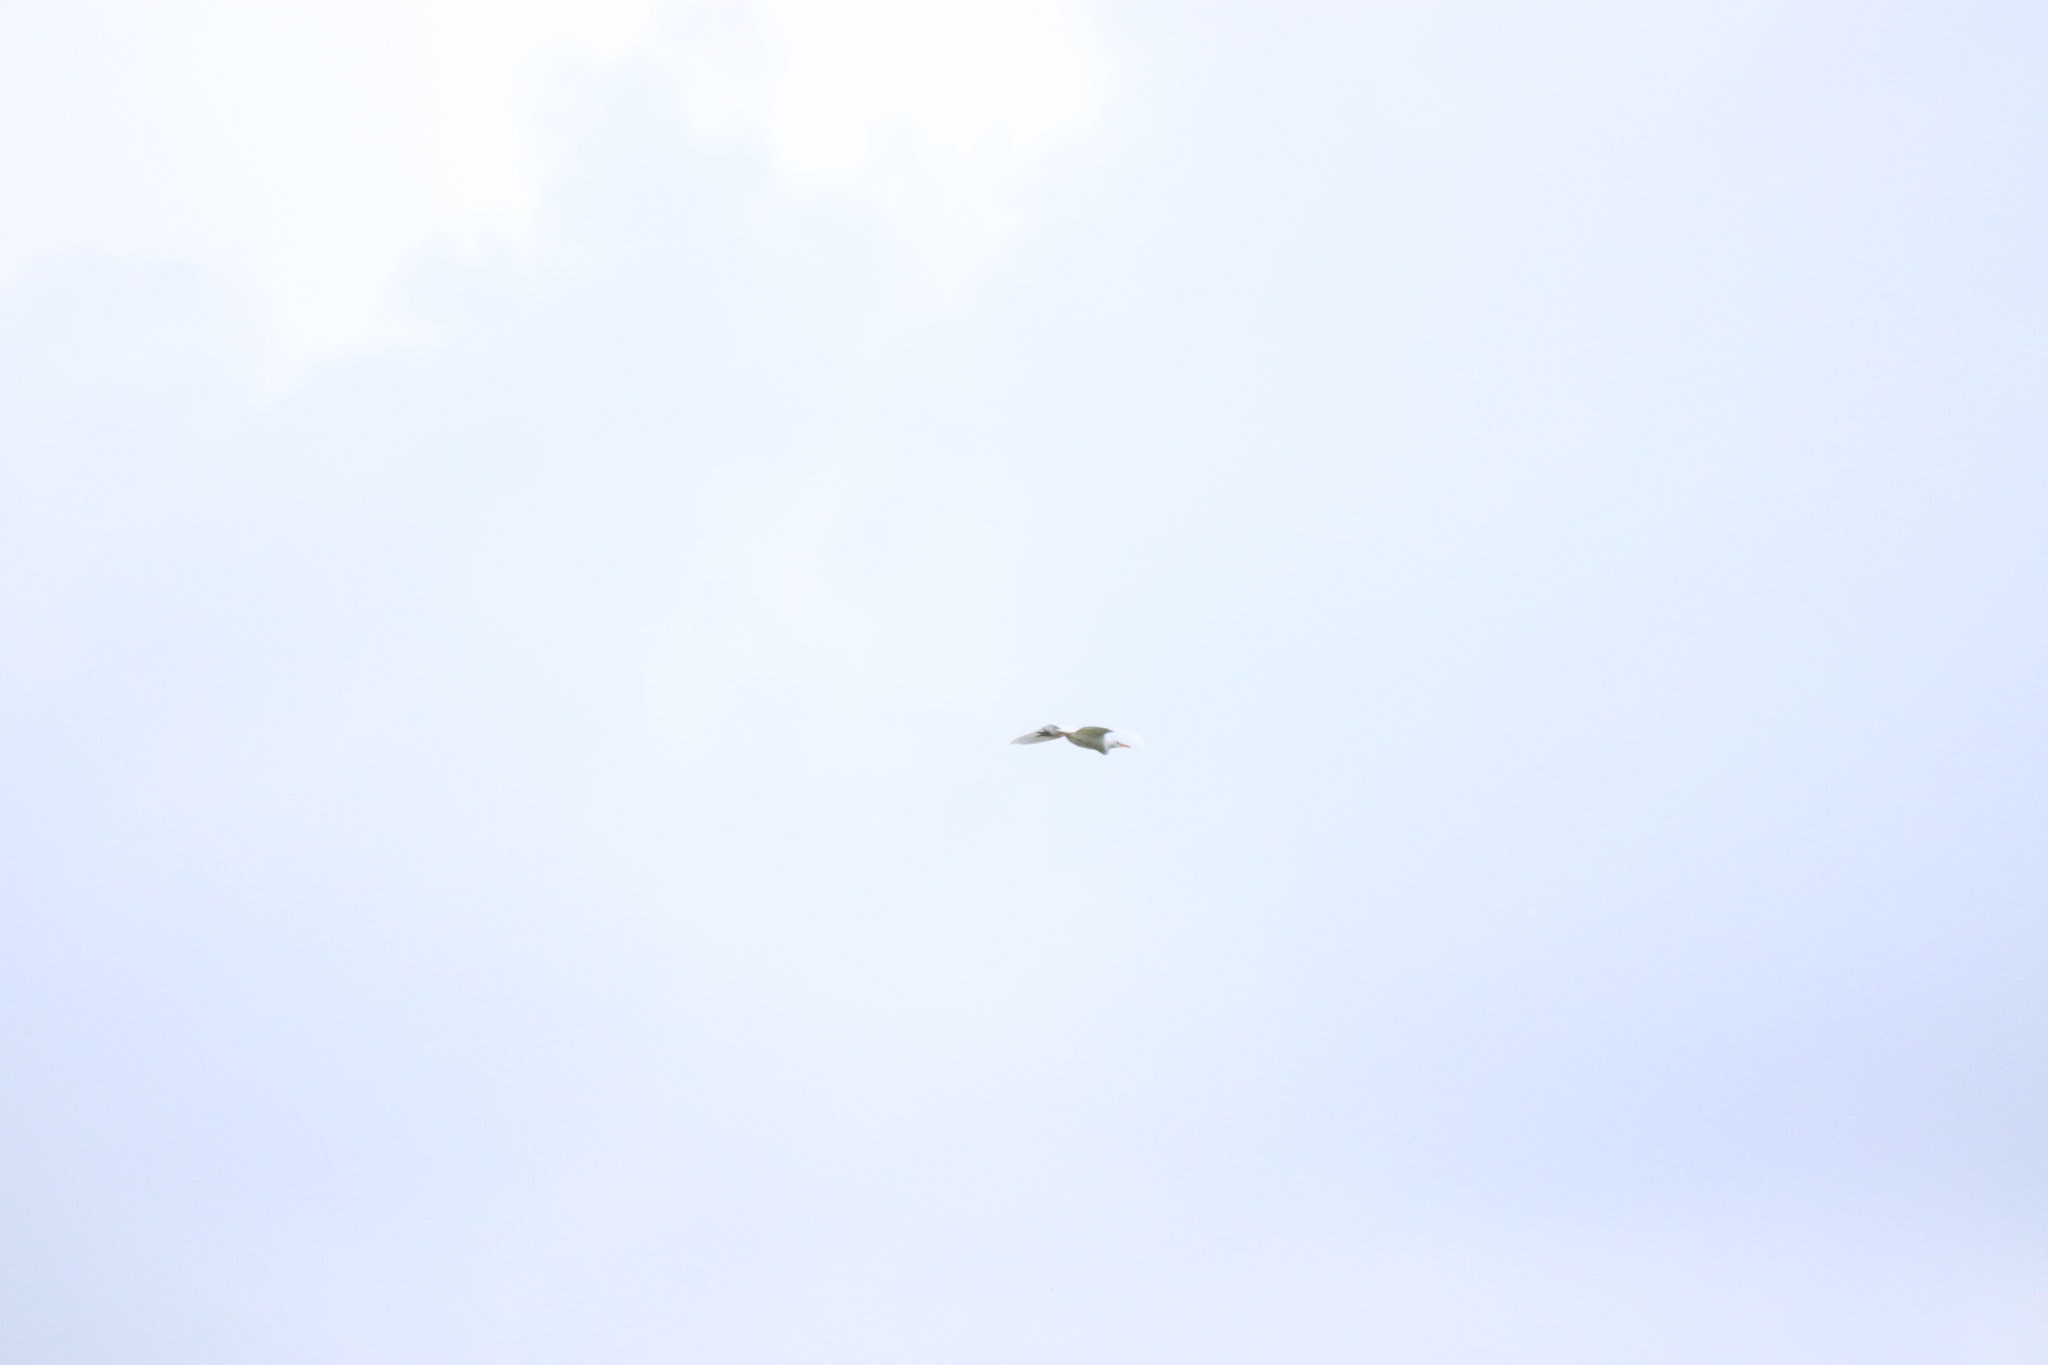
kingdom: Animalia
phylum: Chordata
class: Aves
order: Pelecaniformes
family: Ardeidae
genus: Bubulcus
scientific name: Bubulcus ibis
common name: Cattle egret
